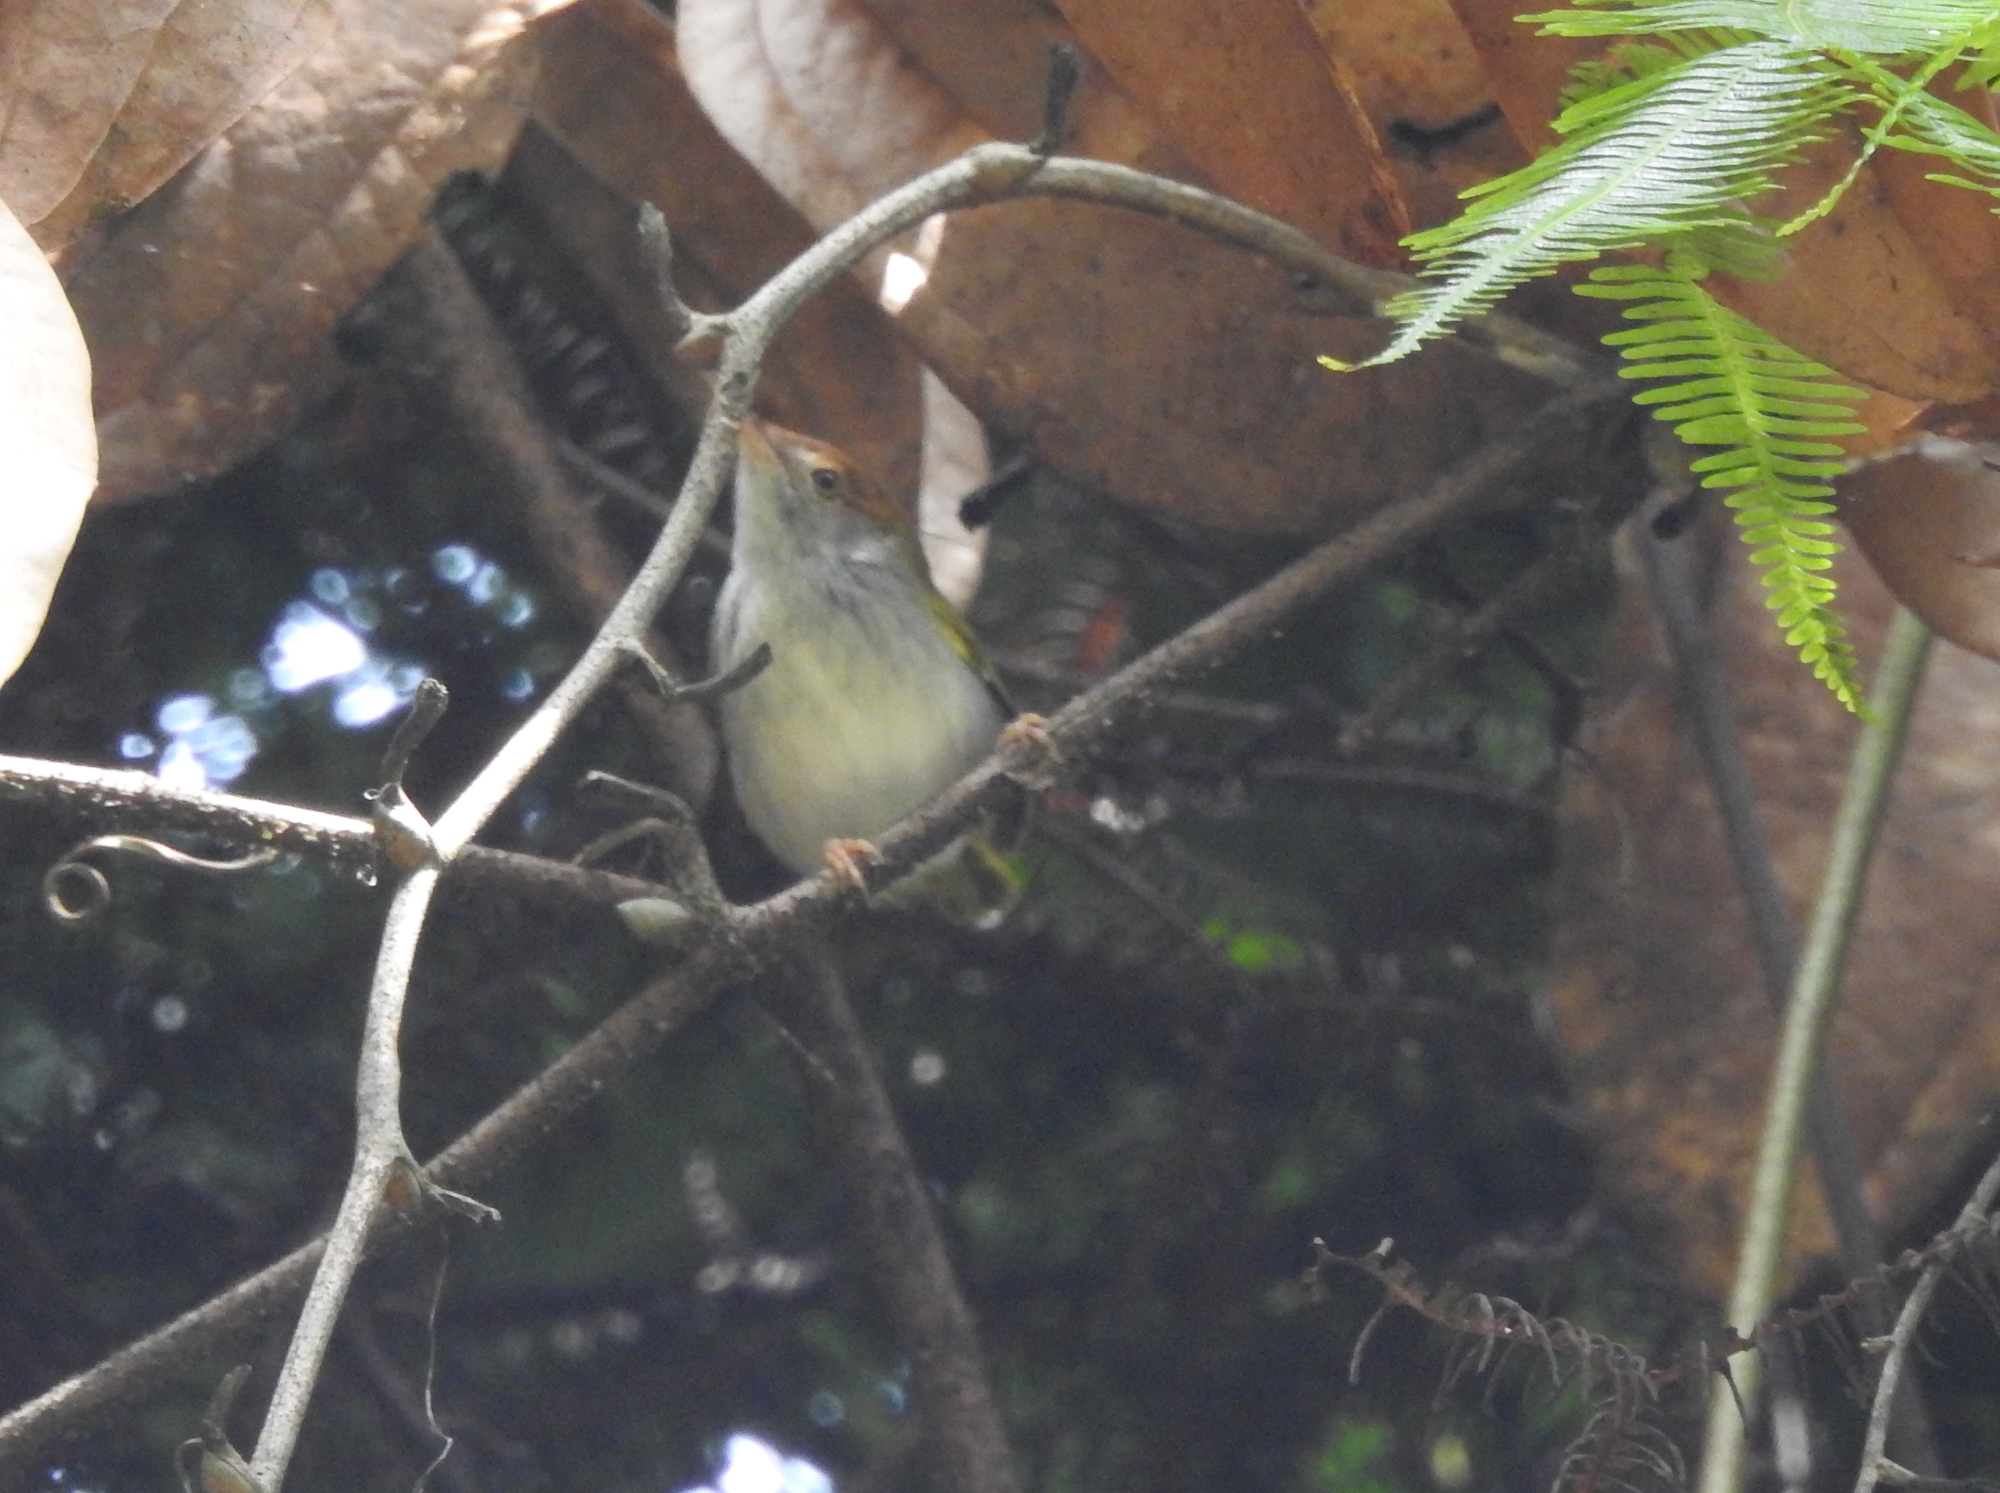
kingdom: Animalia
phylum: Chordata
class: Aves
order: Passeriformes
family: Cisticolidae
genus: Orthotomus
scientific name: Orthotomus sutorius
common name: Common tailorbird
